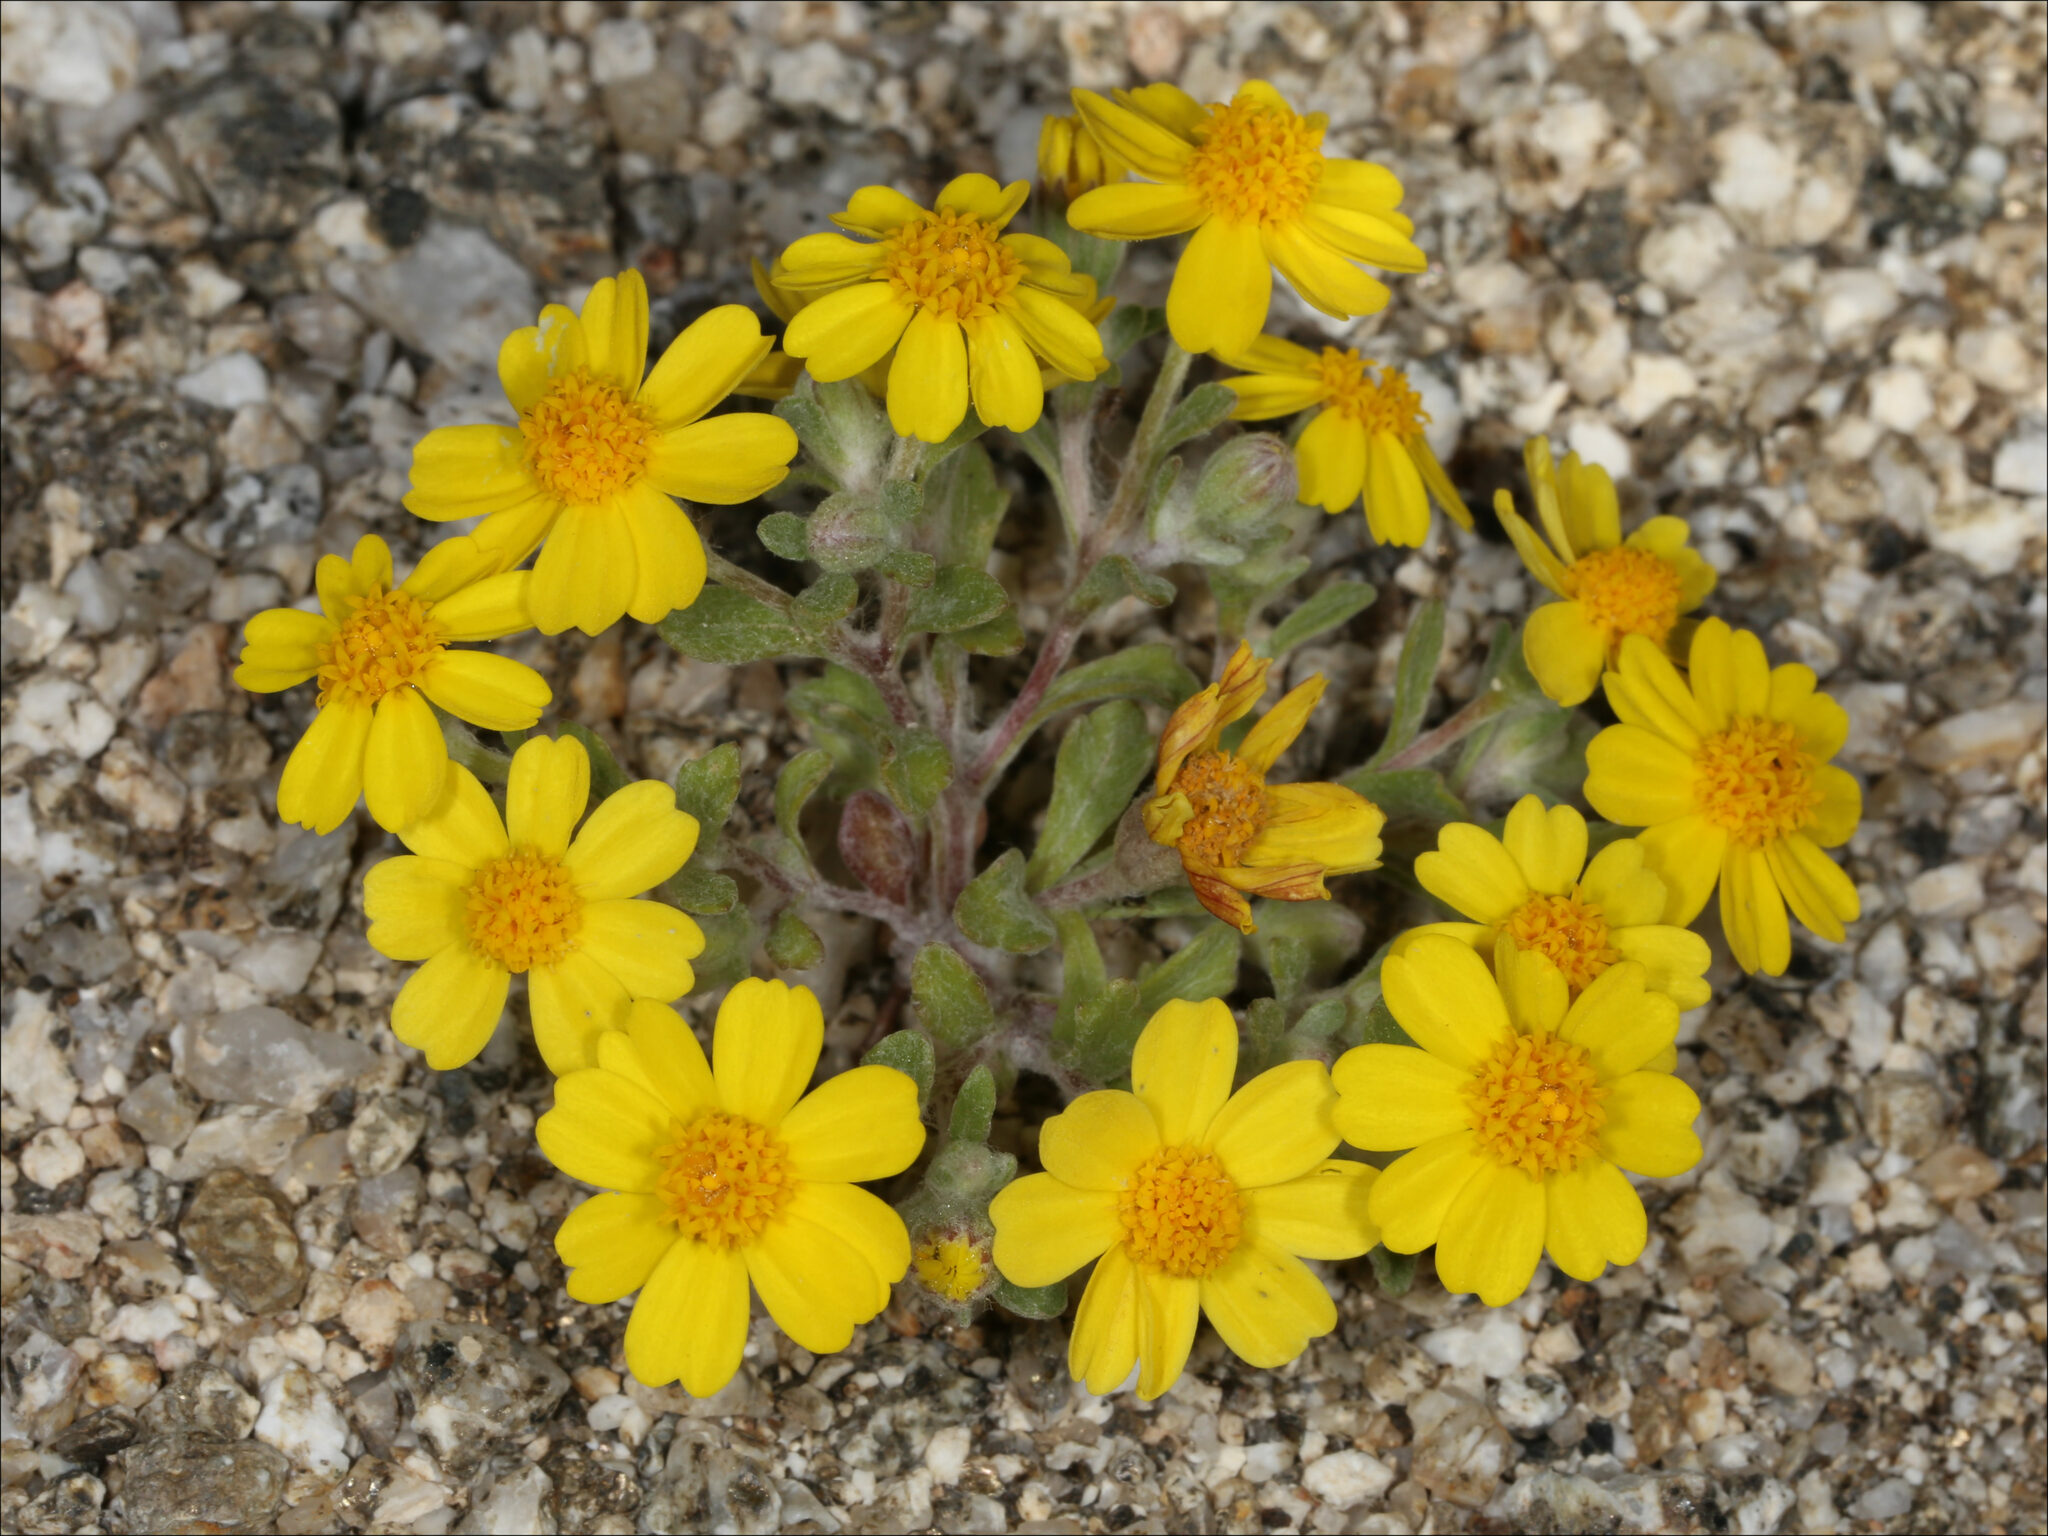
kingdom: Plantae
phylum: Tracheophyta
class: Magnoliopsida
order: Asterales
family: Asteraceae
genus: Eriophyllum
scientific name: Eriophyllum wallacei
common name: Wallace's woolly daisy
